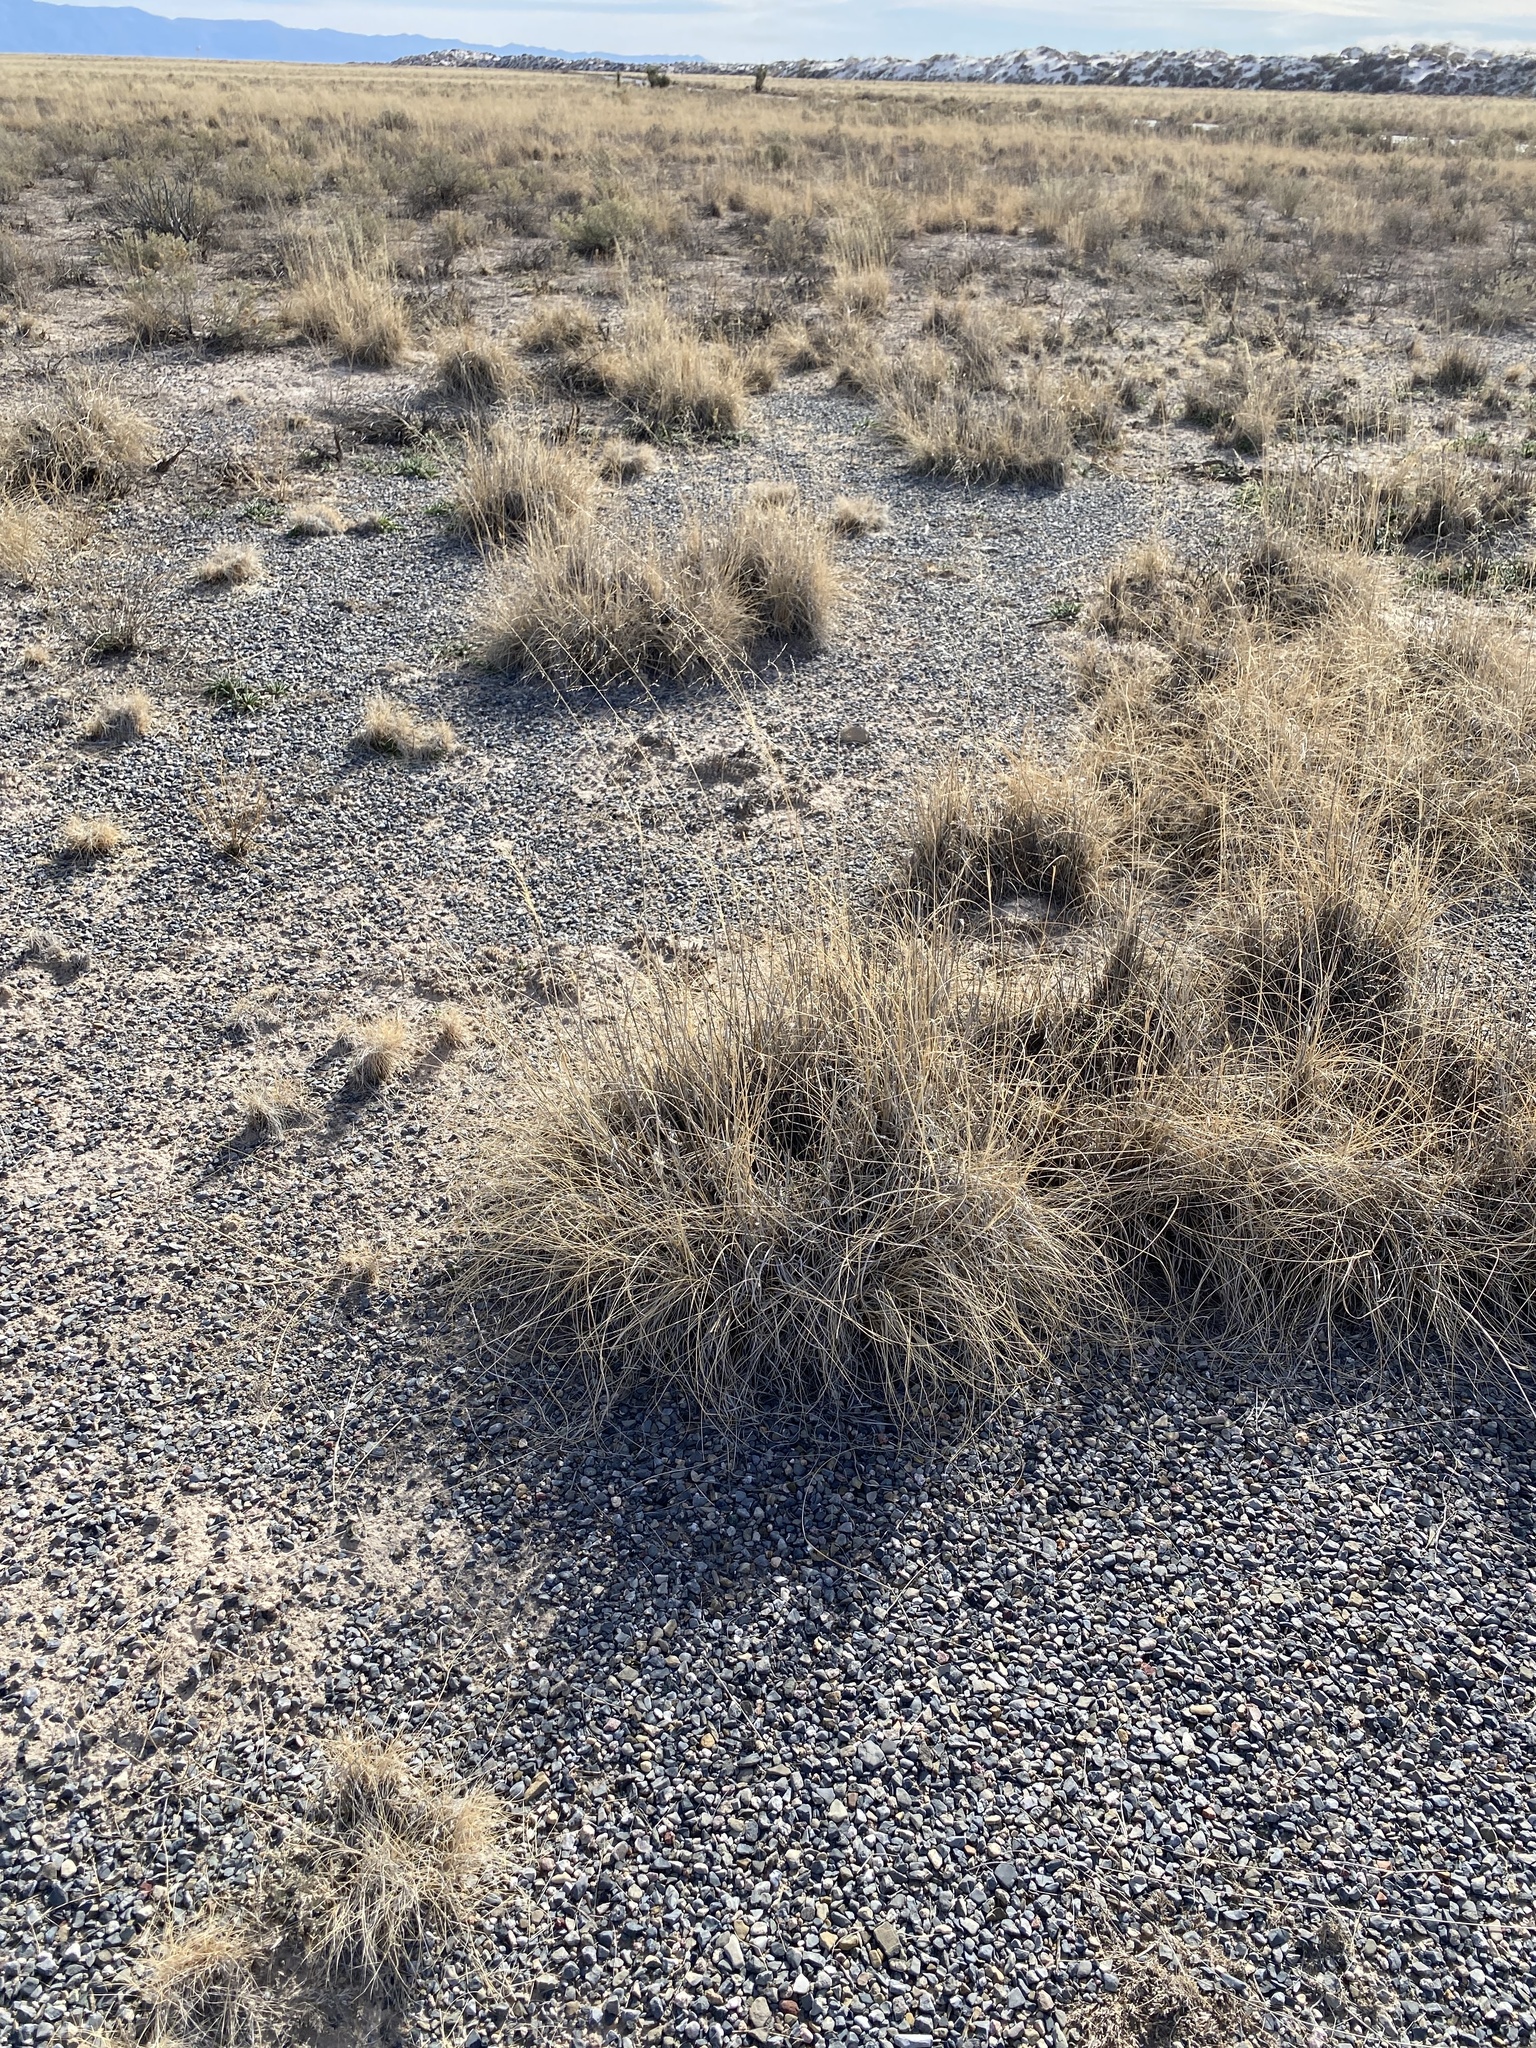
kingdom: Plantae
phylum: Tracheophyta
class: Liliopsida
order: Poales
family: Poaceae
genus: Sporobolus
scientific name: Sporobolus airoides
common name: Alkali sacaton
